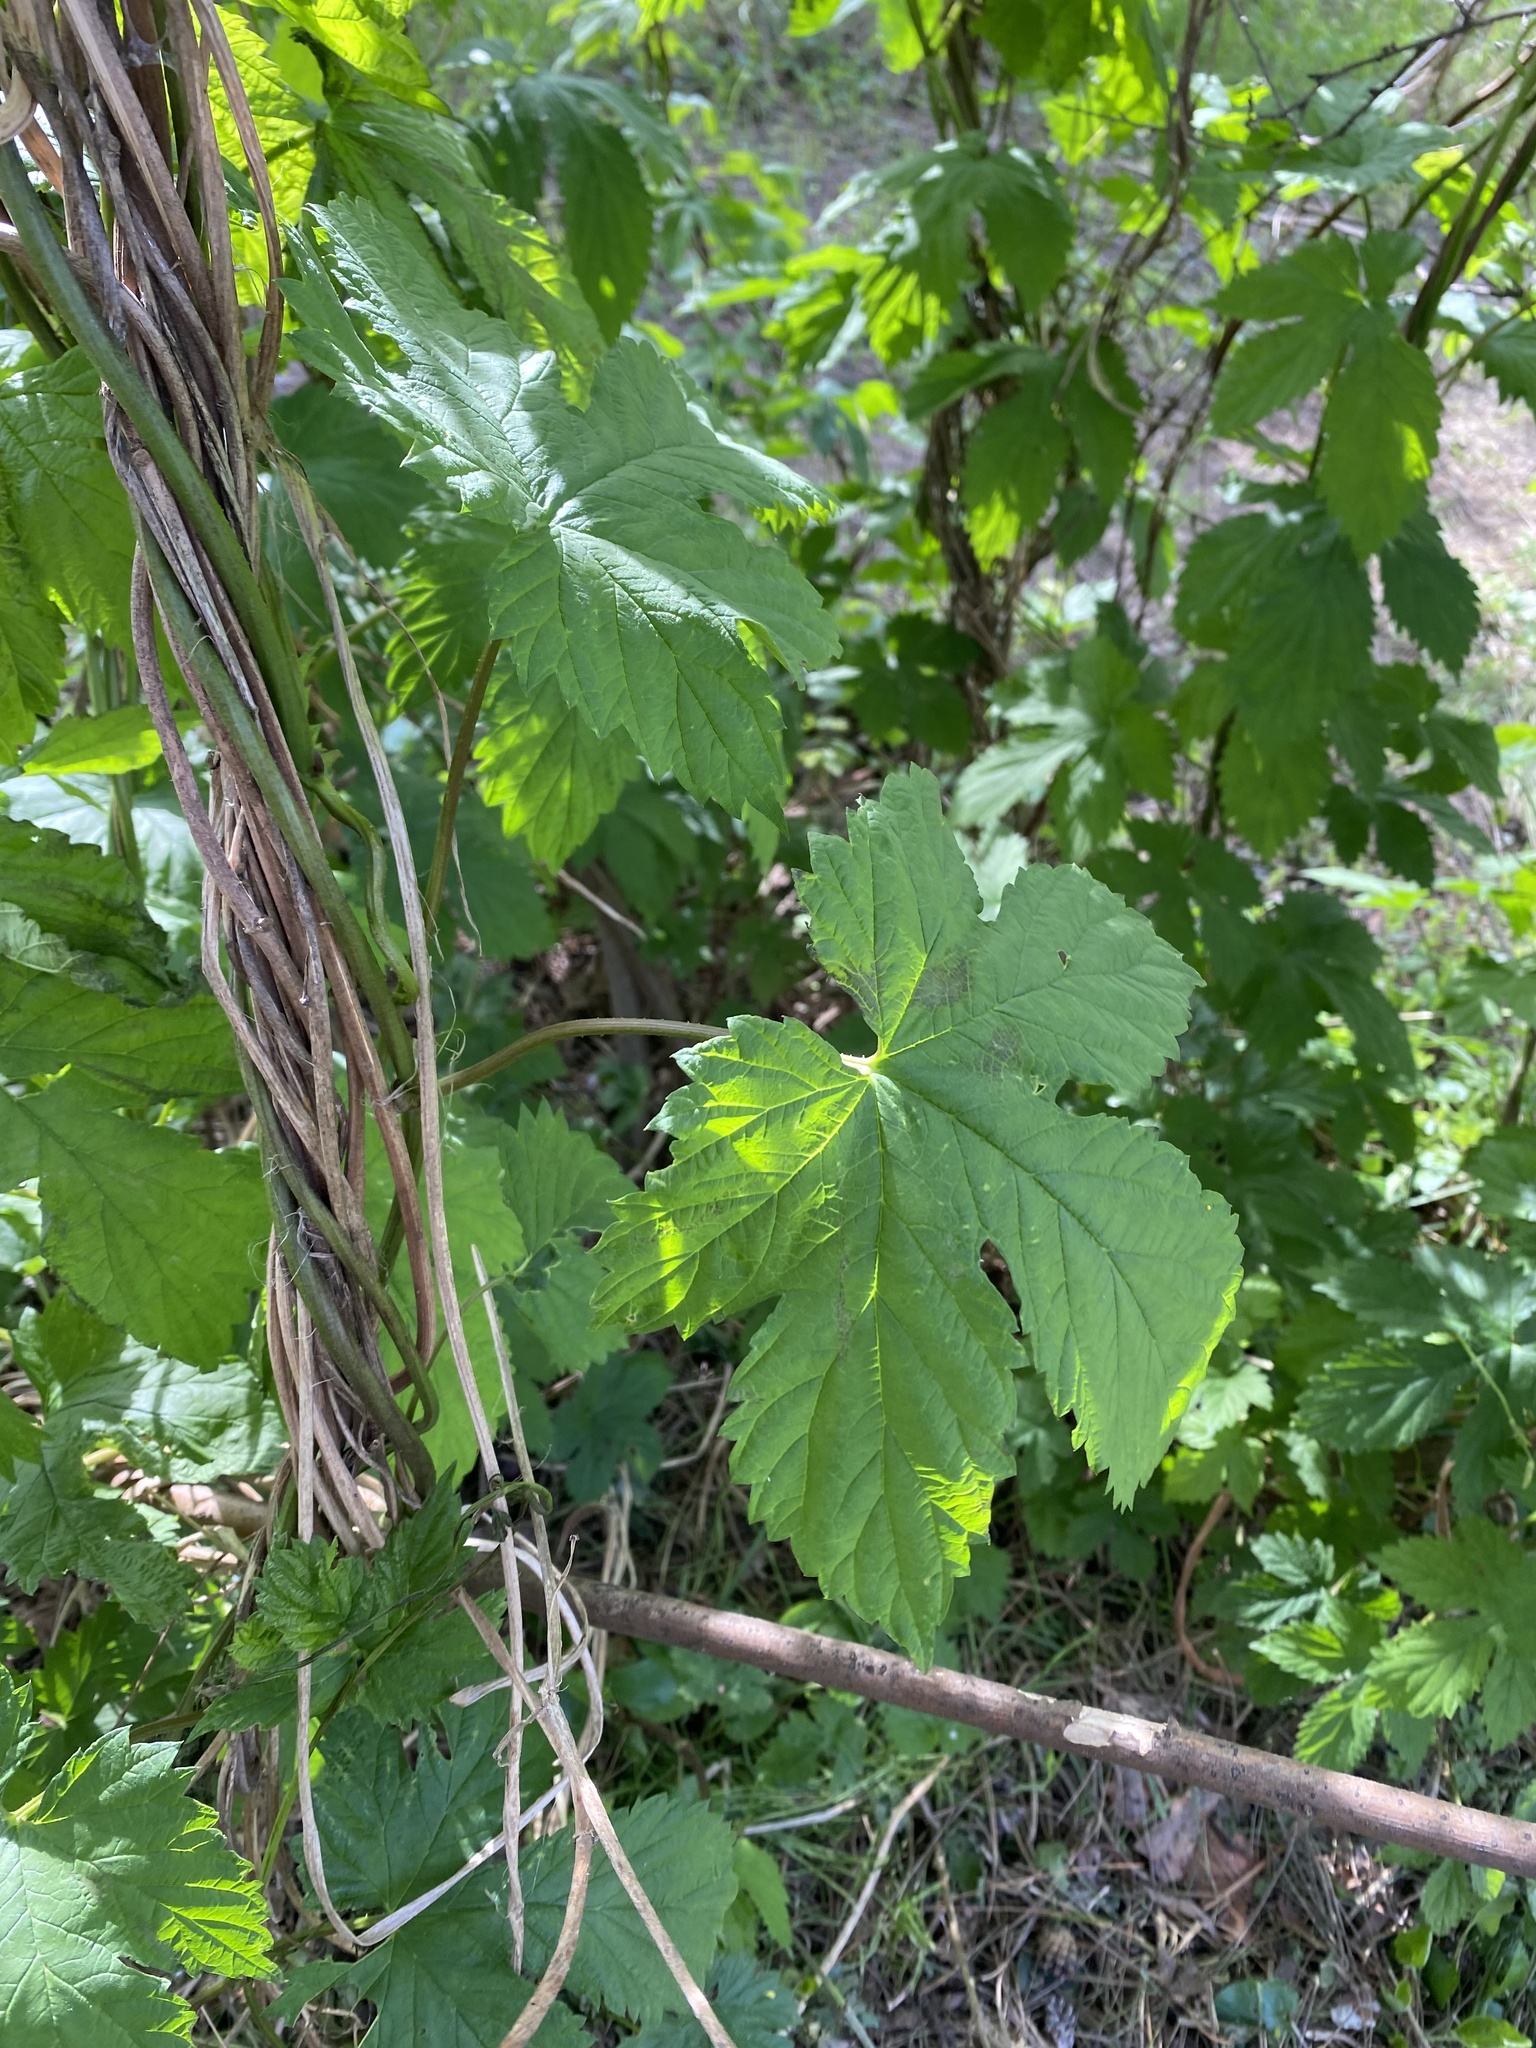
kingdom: Plantae
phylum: Tracheophyta
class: Magnoliopsida
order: Rosales
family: Cannabaceae
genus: Humulus
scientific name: Humulus lupulus
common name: Hop
